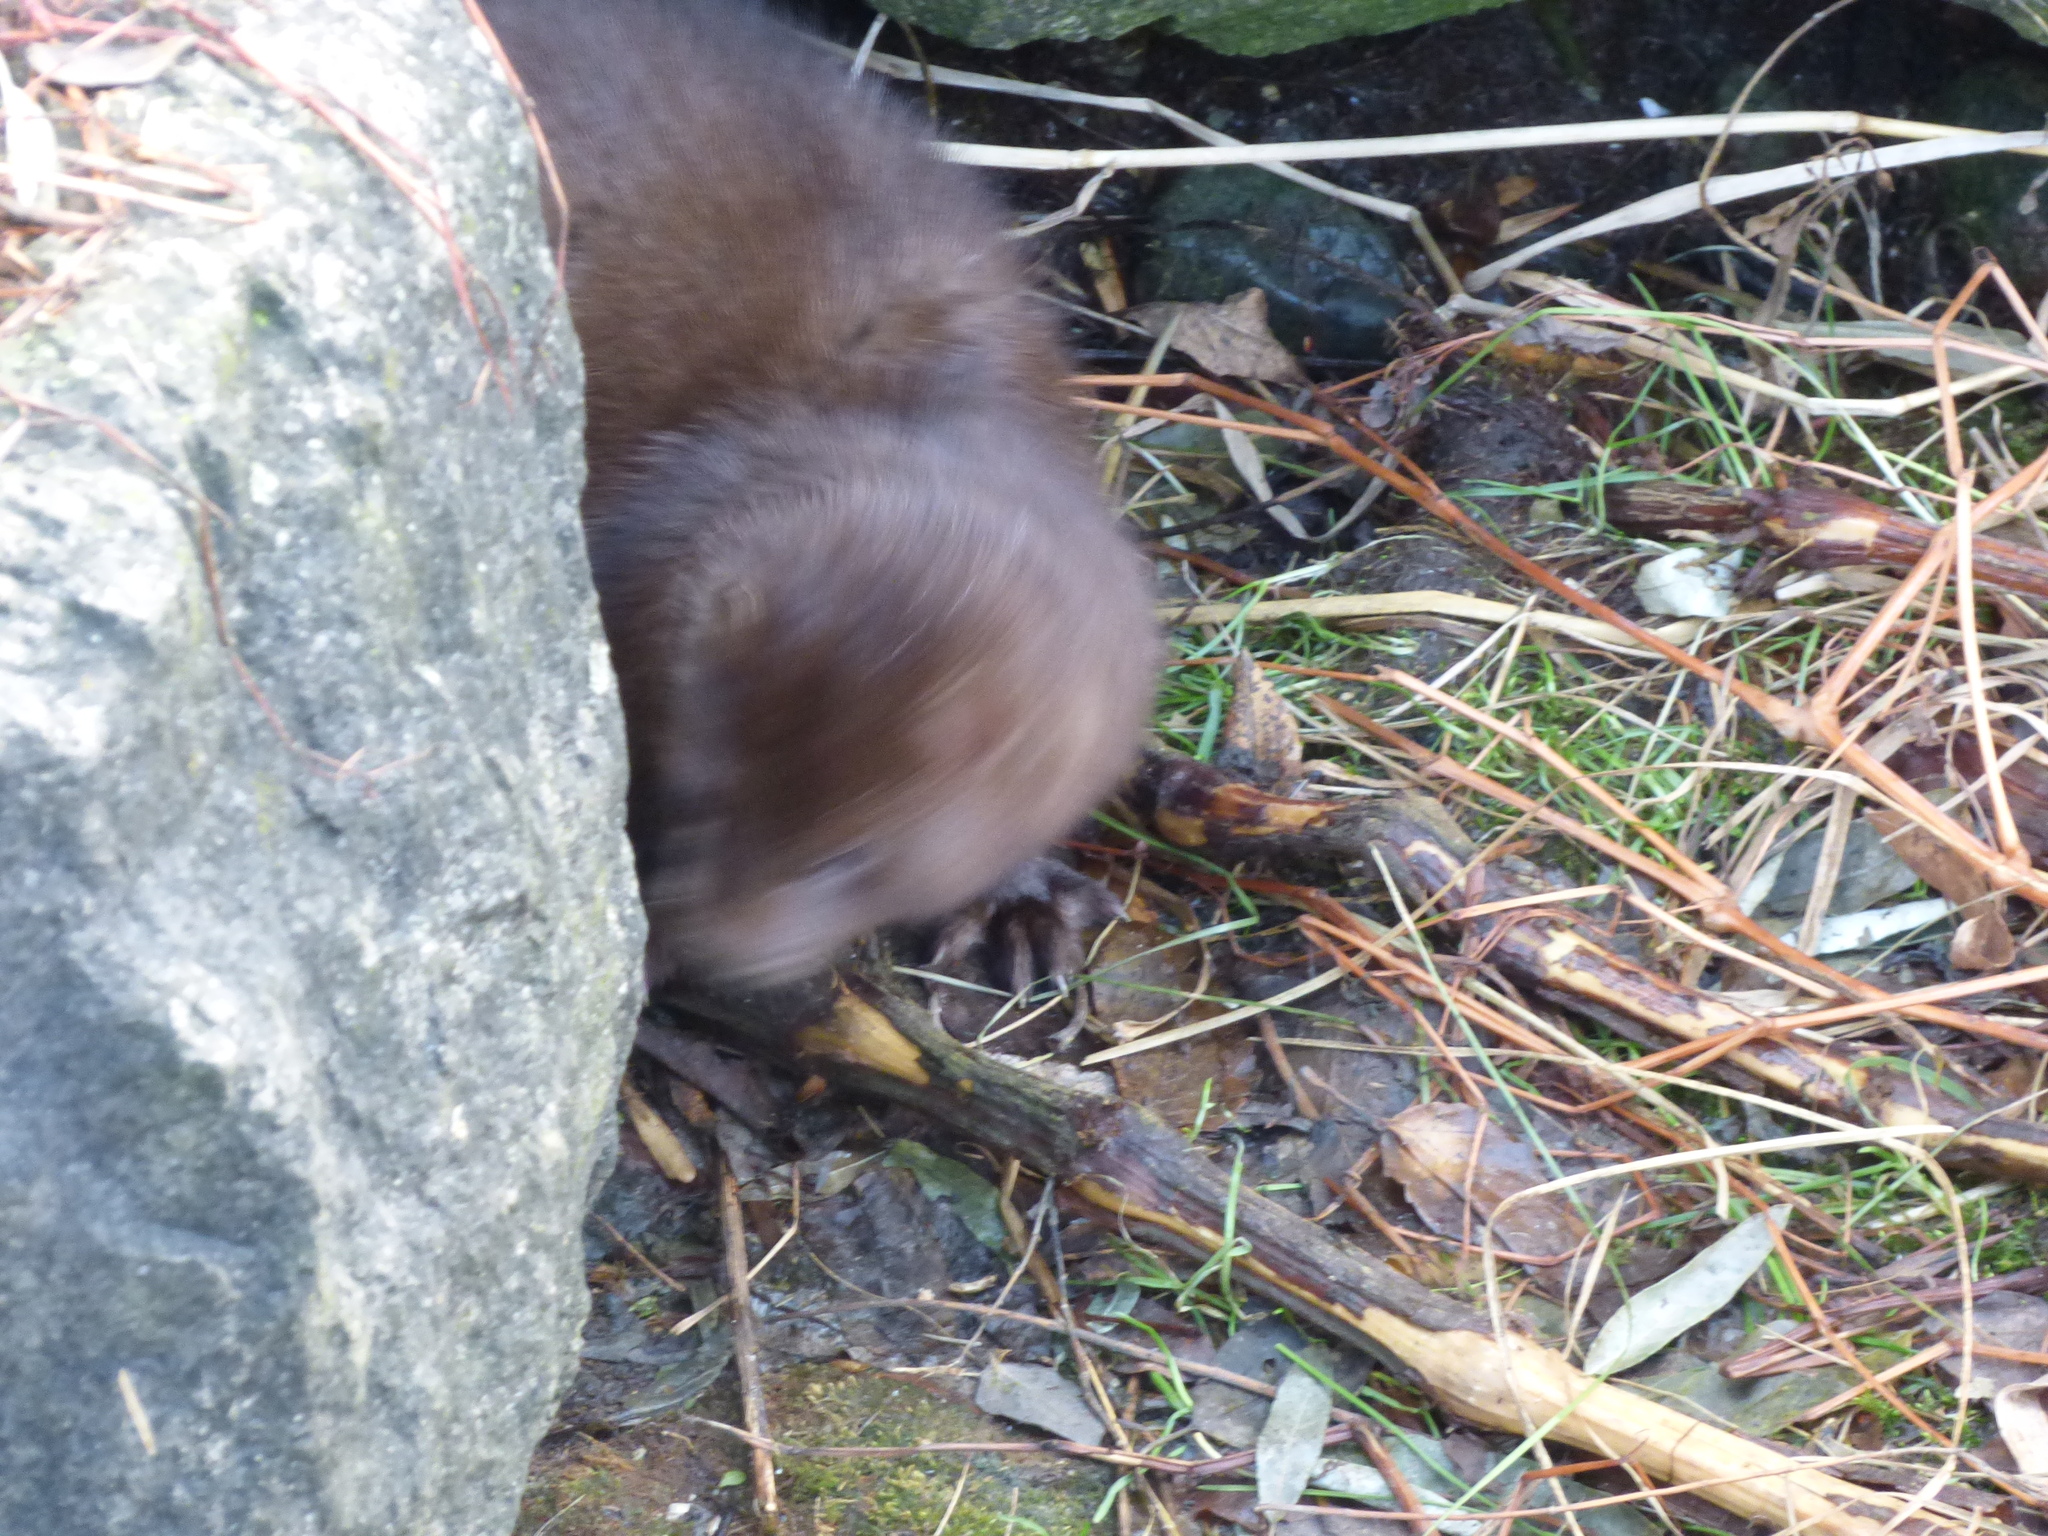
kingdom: Animalia
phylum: Chordata
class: Mammalia
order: Carnivora
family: Mustelidae
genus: Mustela
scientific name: Mustela
